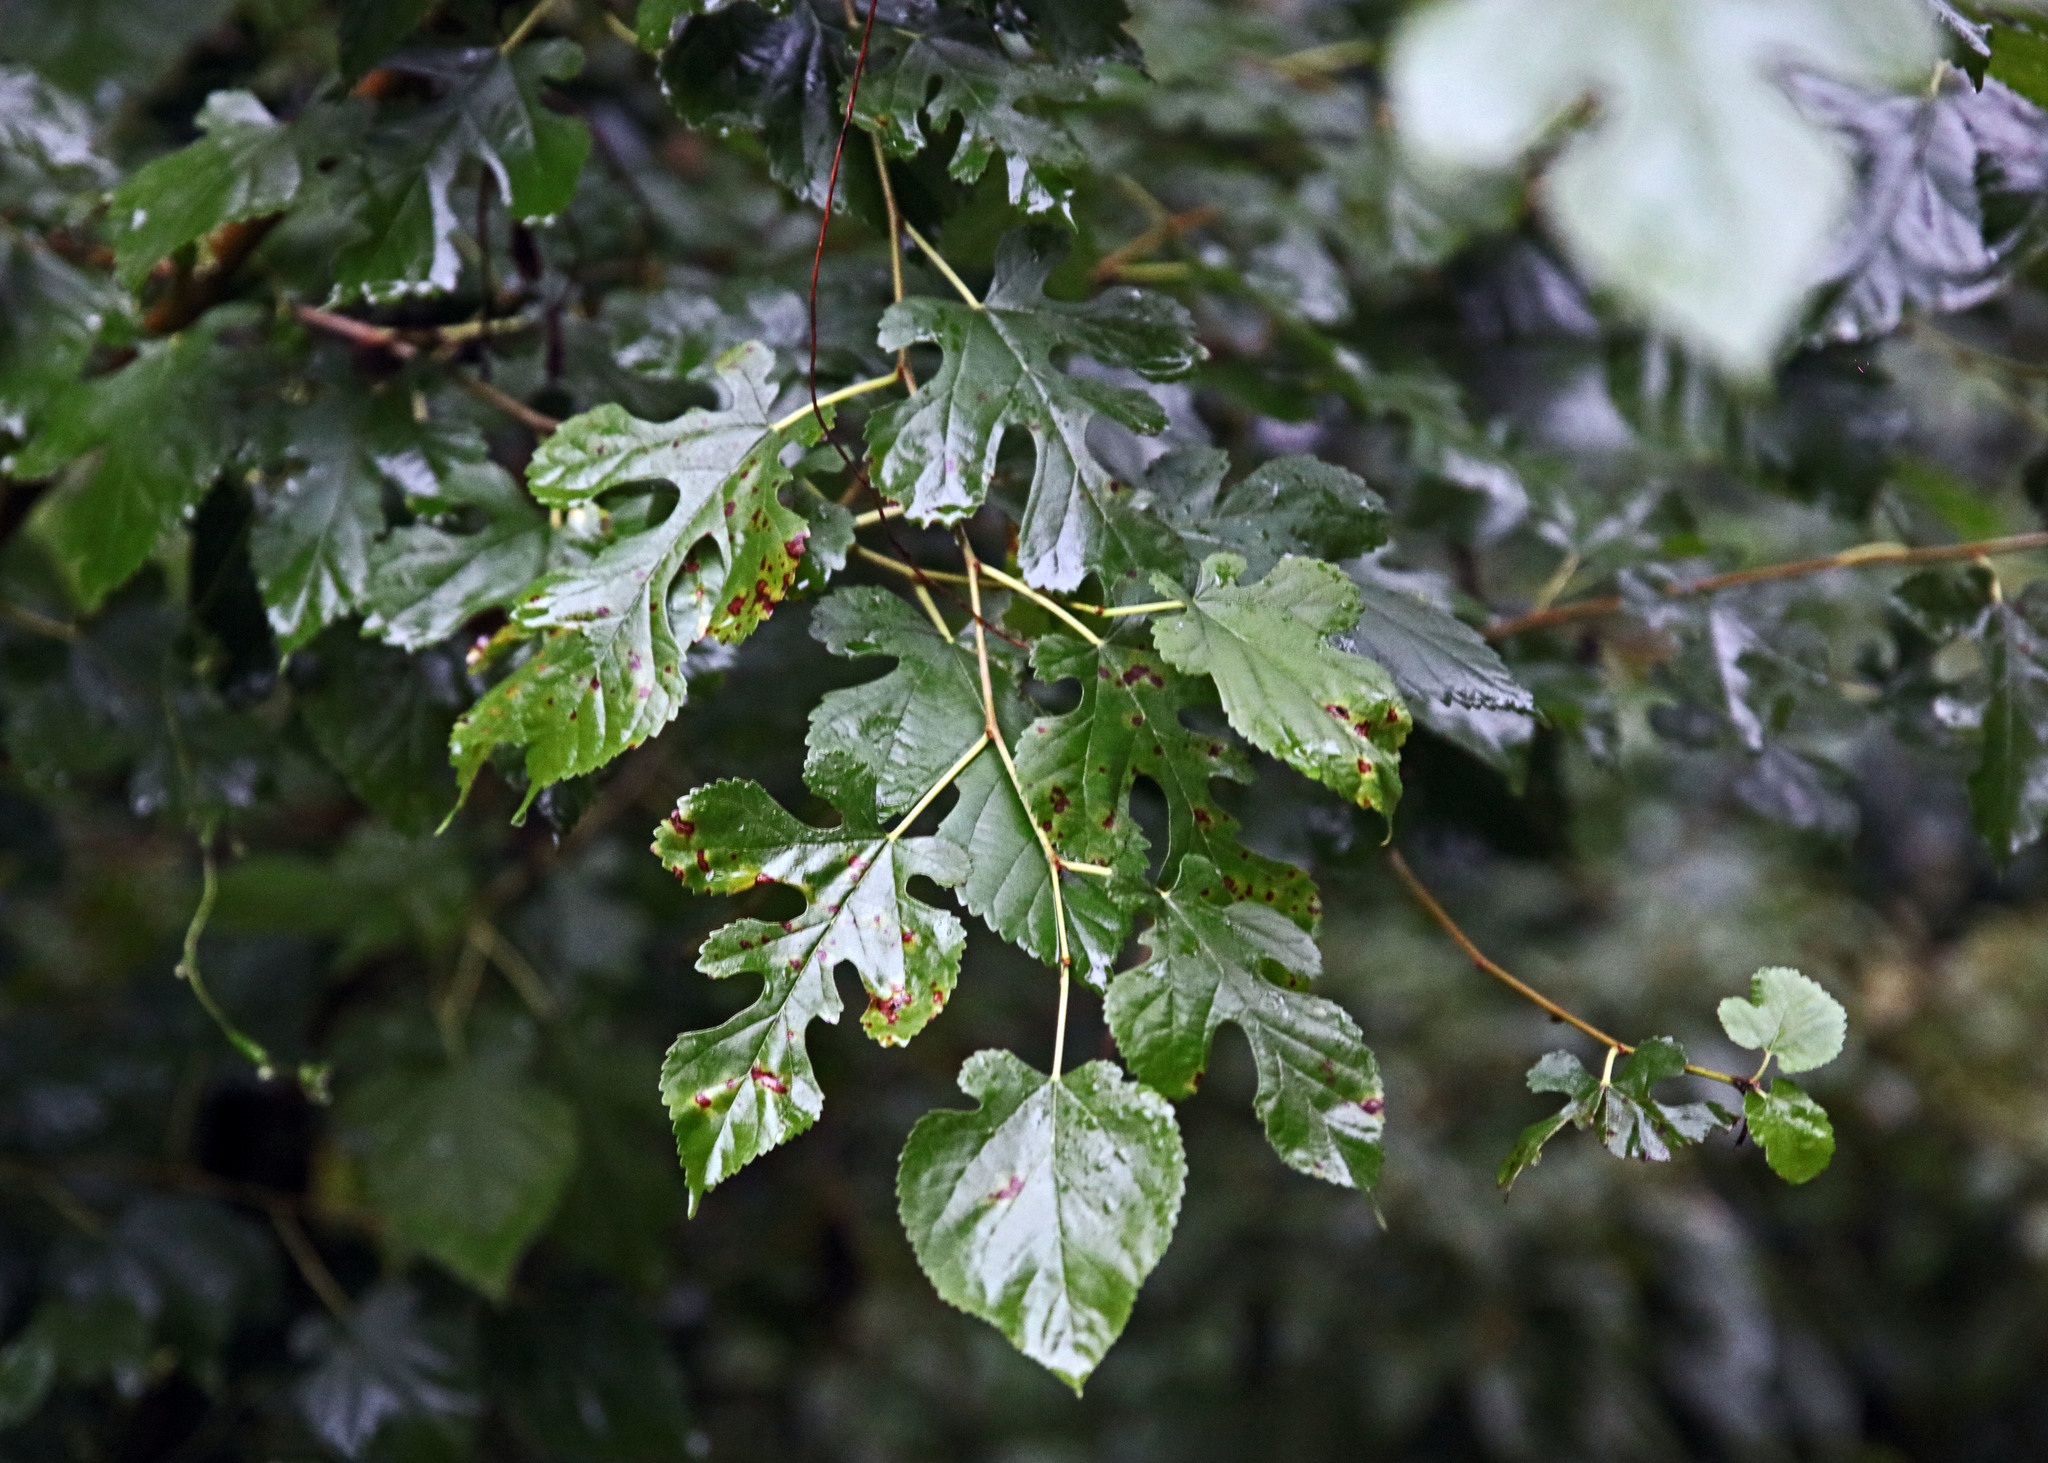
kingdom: Plantae
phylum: Tracheophyta
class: Magnoliopsida
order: Rosales
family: Moraceae
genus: Morus
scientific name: Morus alba
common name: White mulberry
